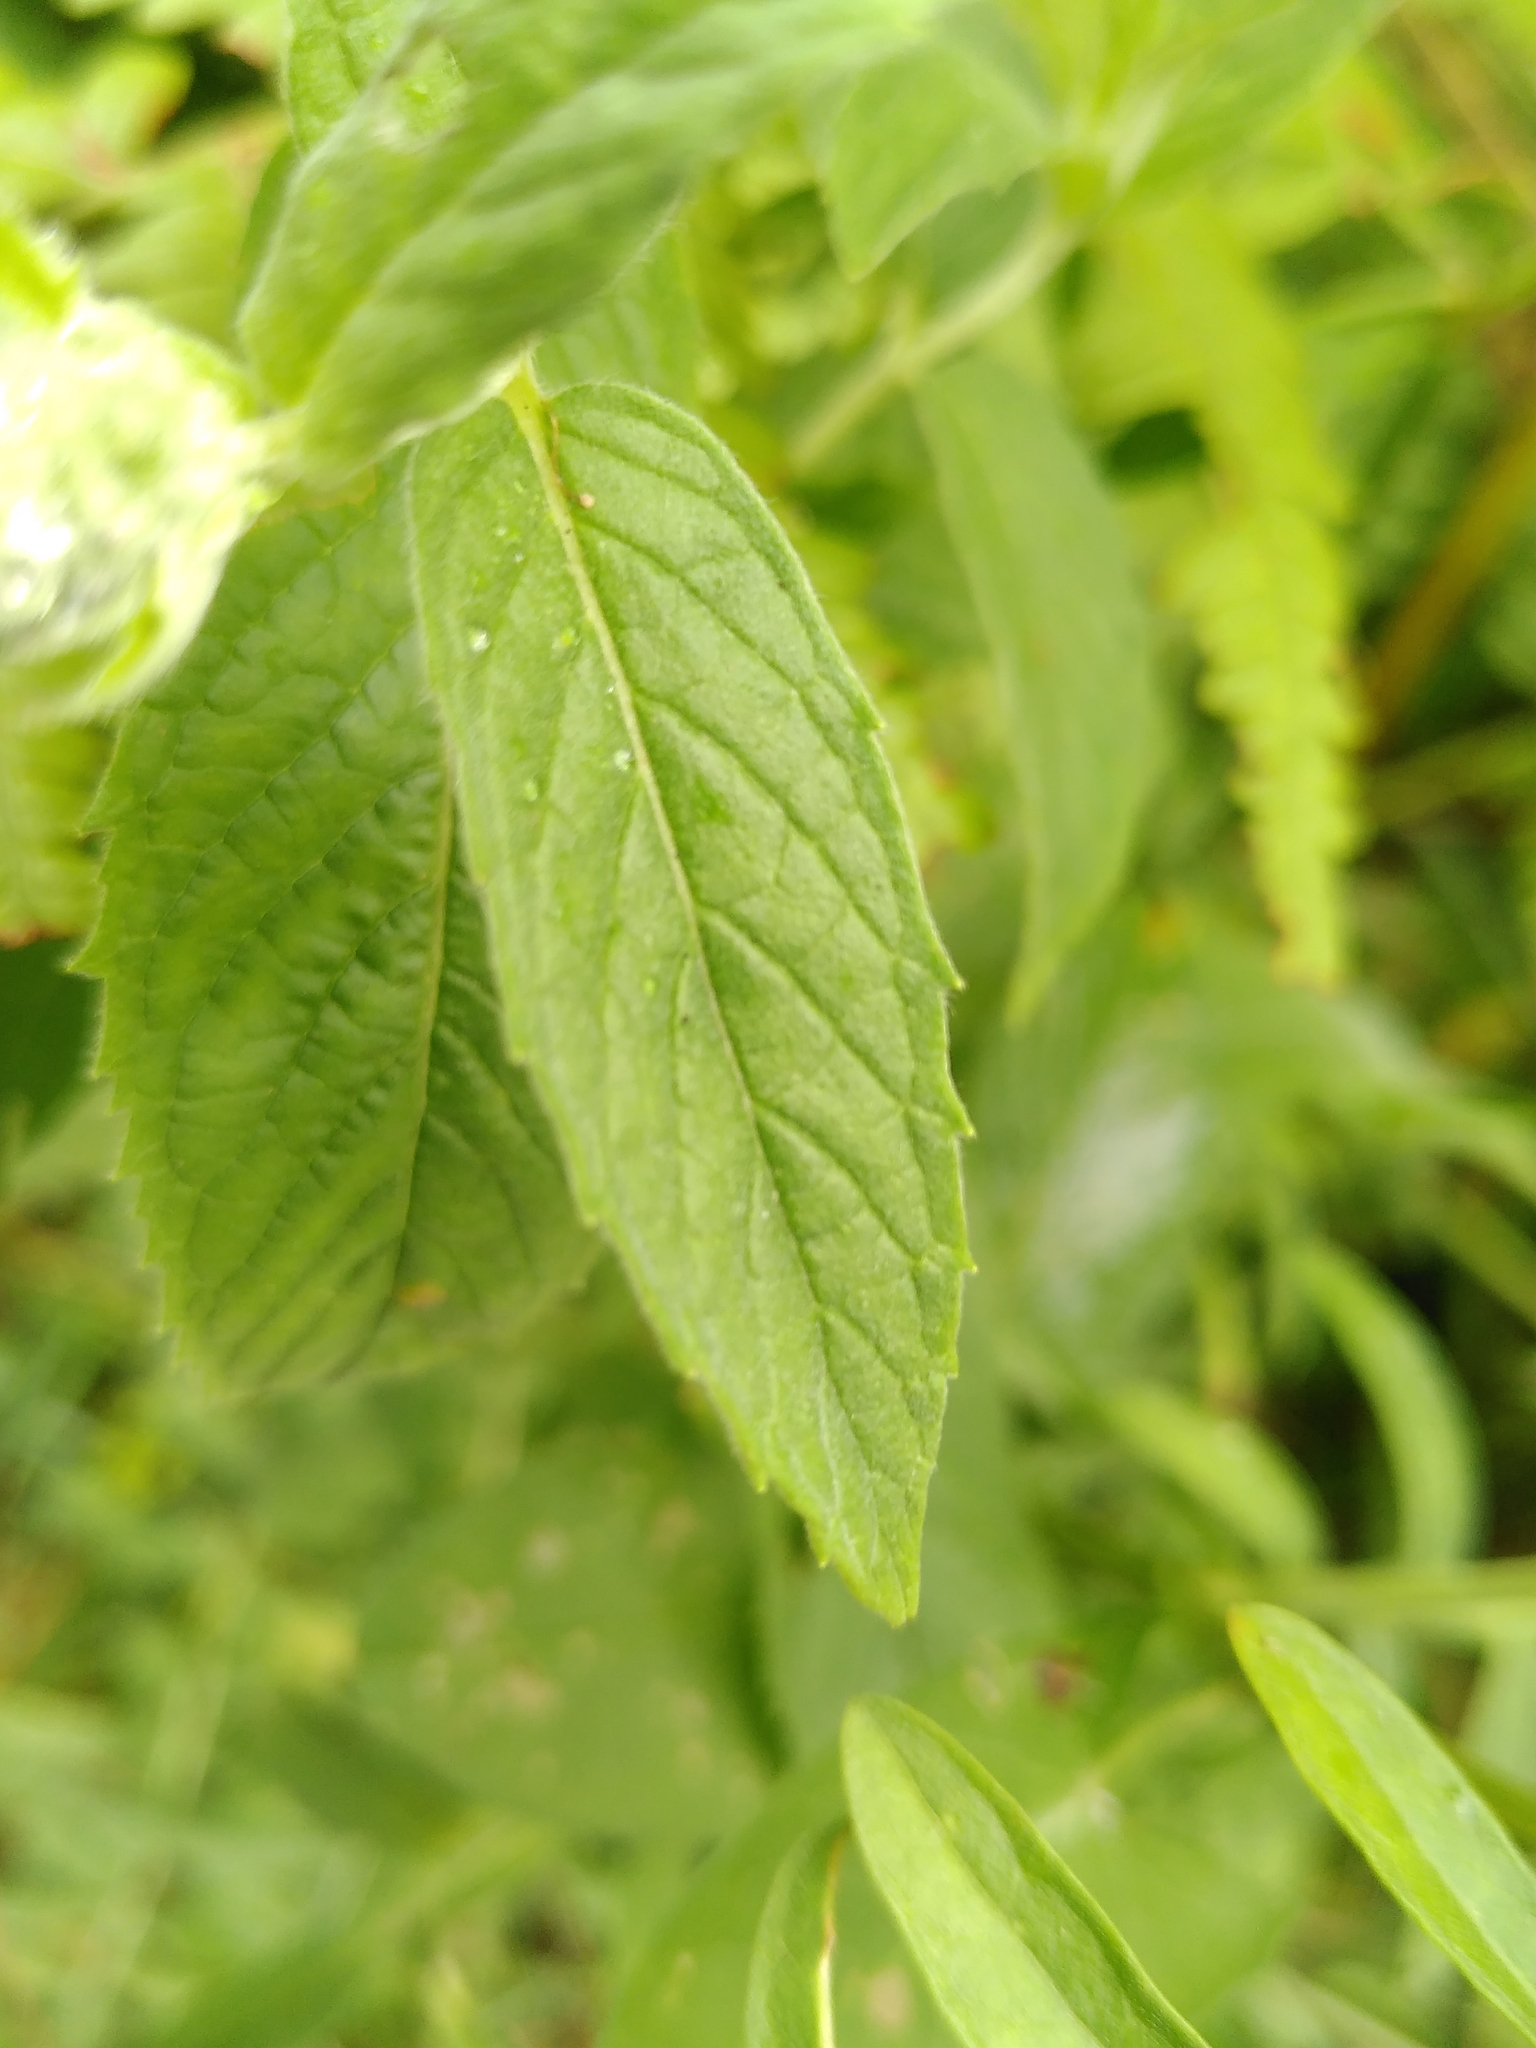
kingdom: Plantae
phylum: Tracheophyta
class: Magnoliopsida
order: Lamiales
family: Lamiaceae
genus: Mentha
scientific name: Mentha longifolia
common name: Horse mint
